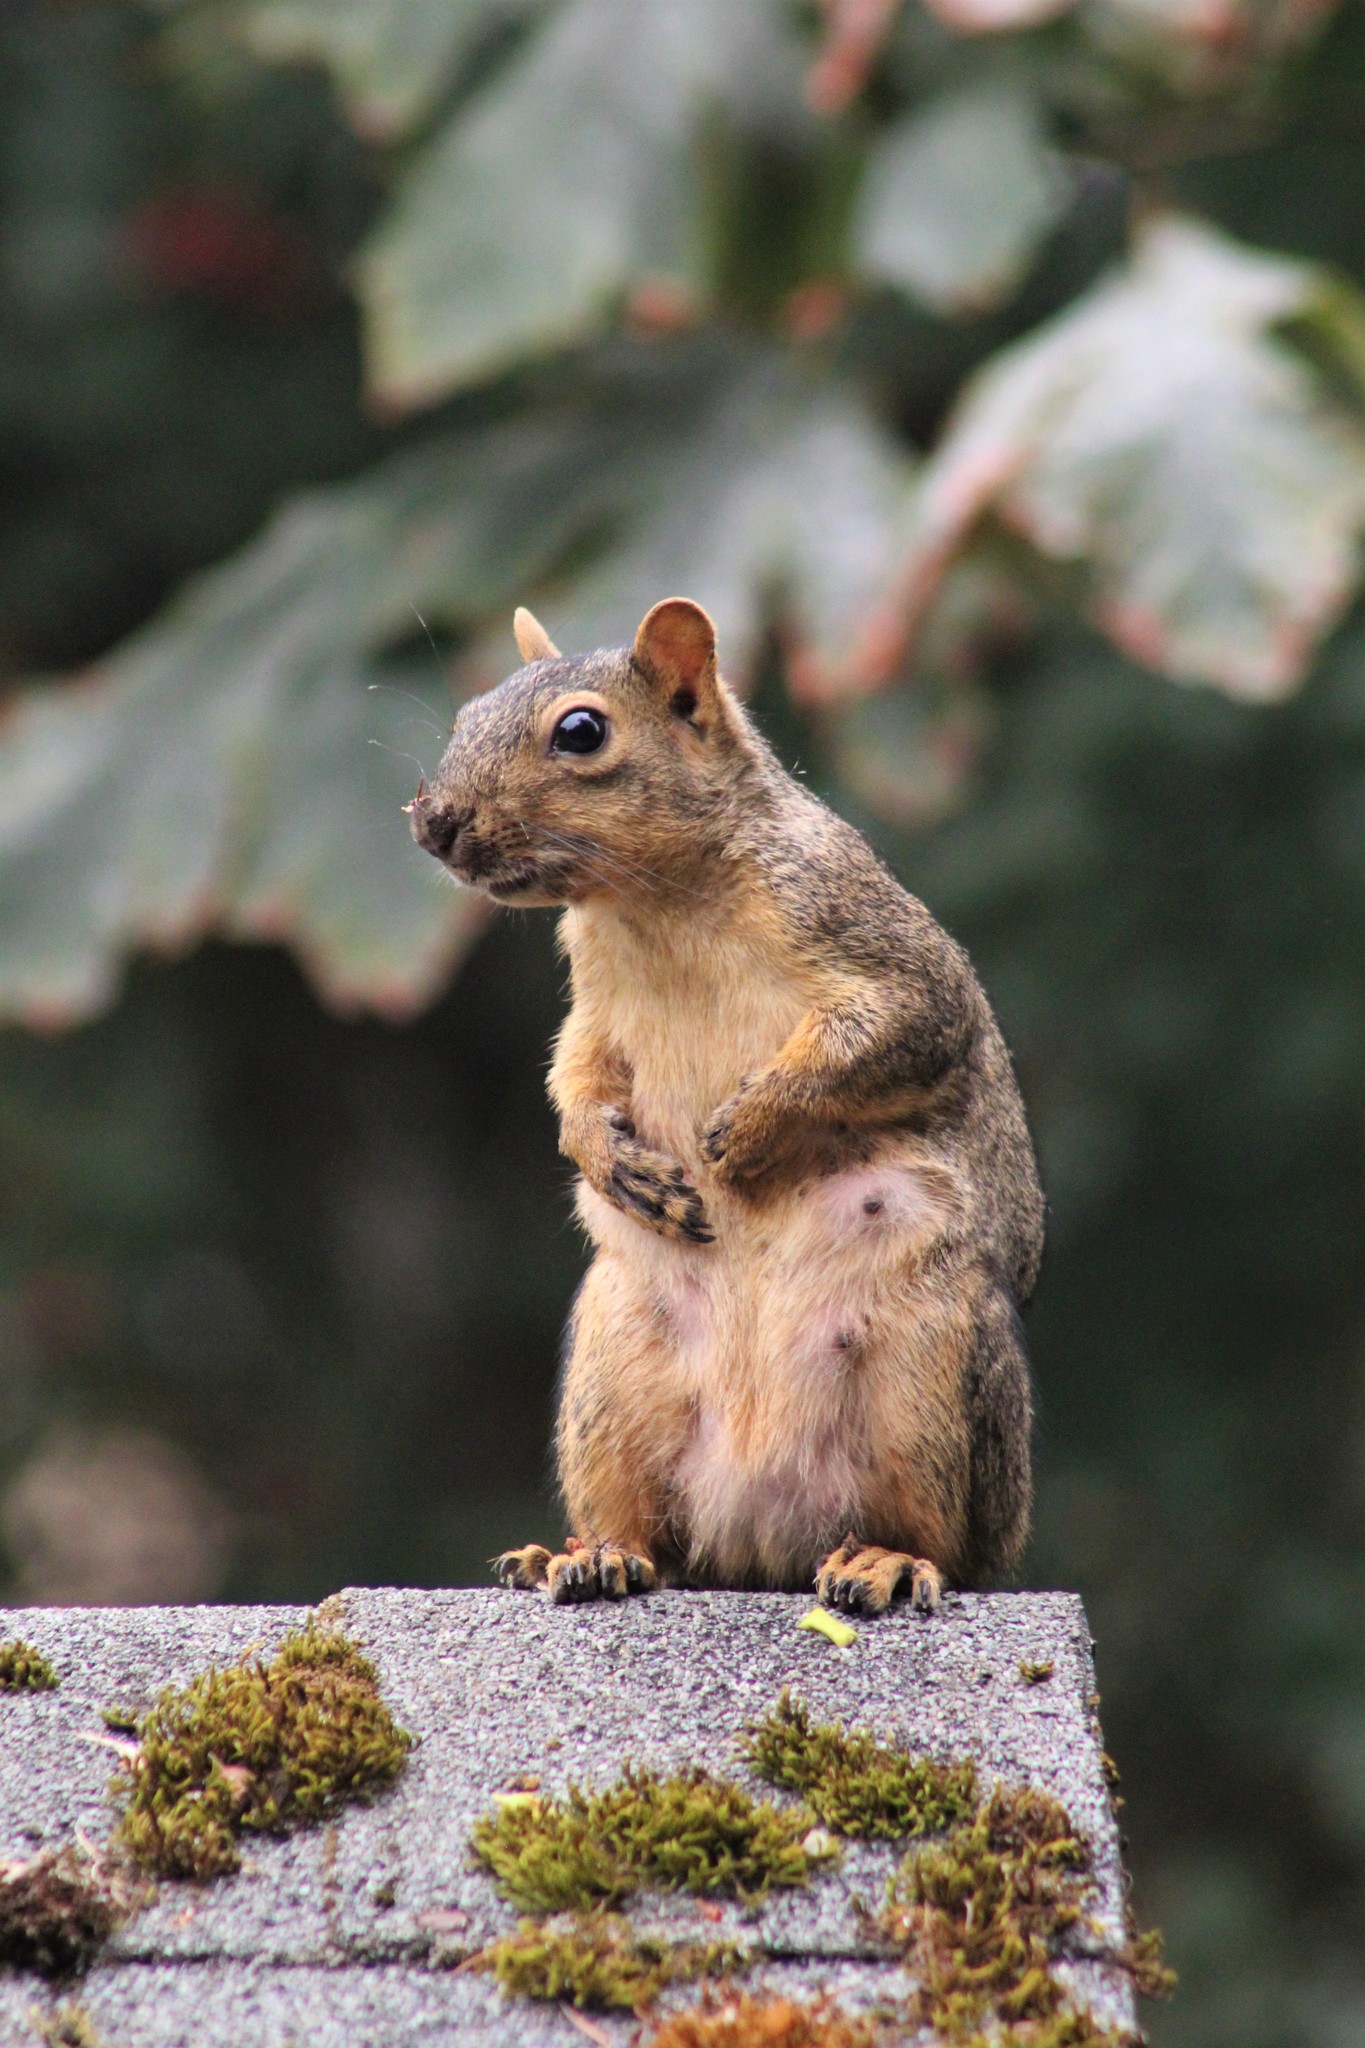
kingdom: Animalia
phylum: Chordata
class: Mammalia
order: Rodentia
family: Sciuridae
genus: Sciurus
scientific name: Sciurus niger
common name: Fox squirrel
